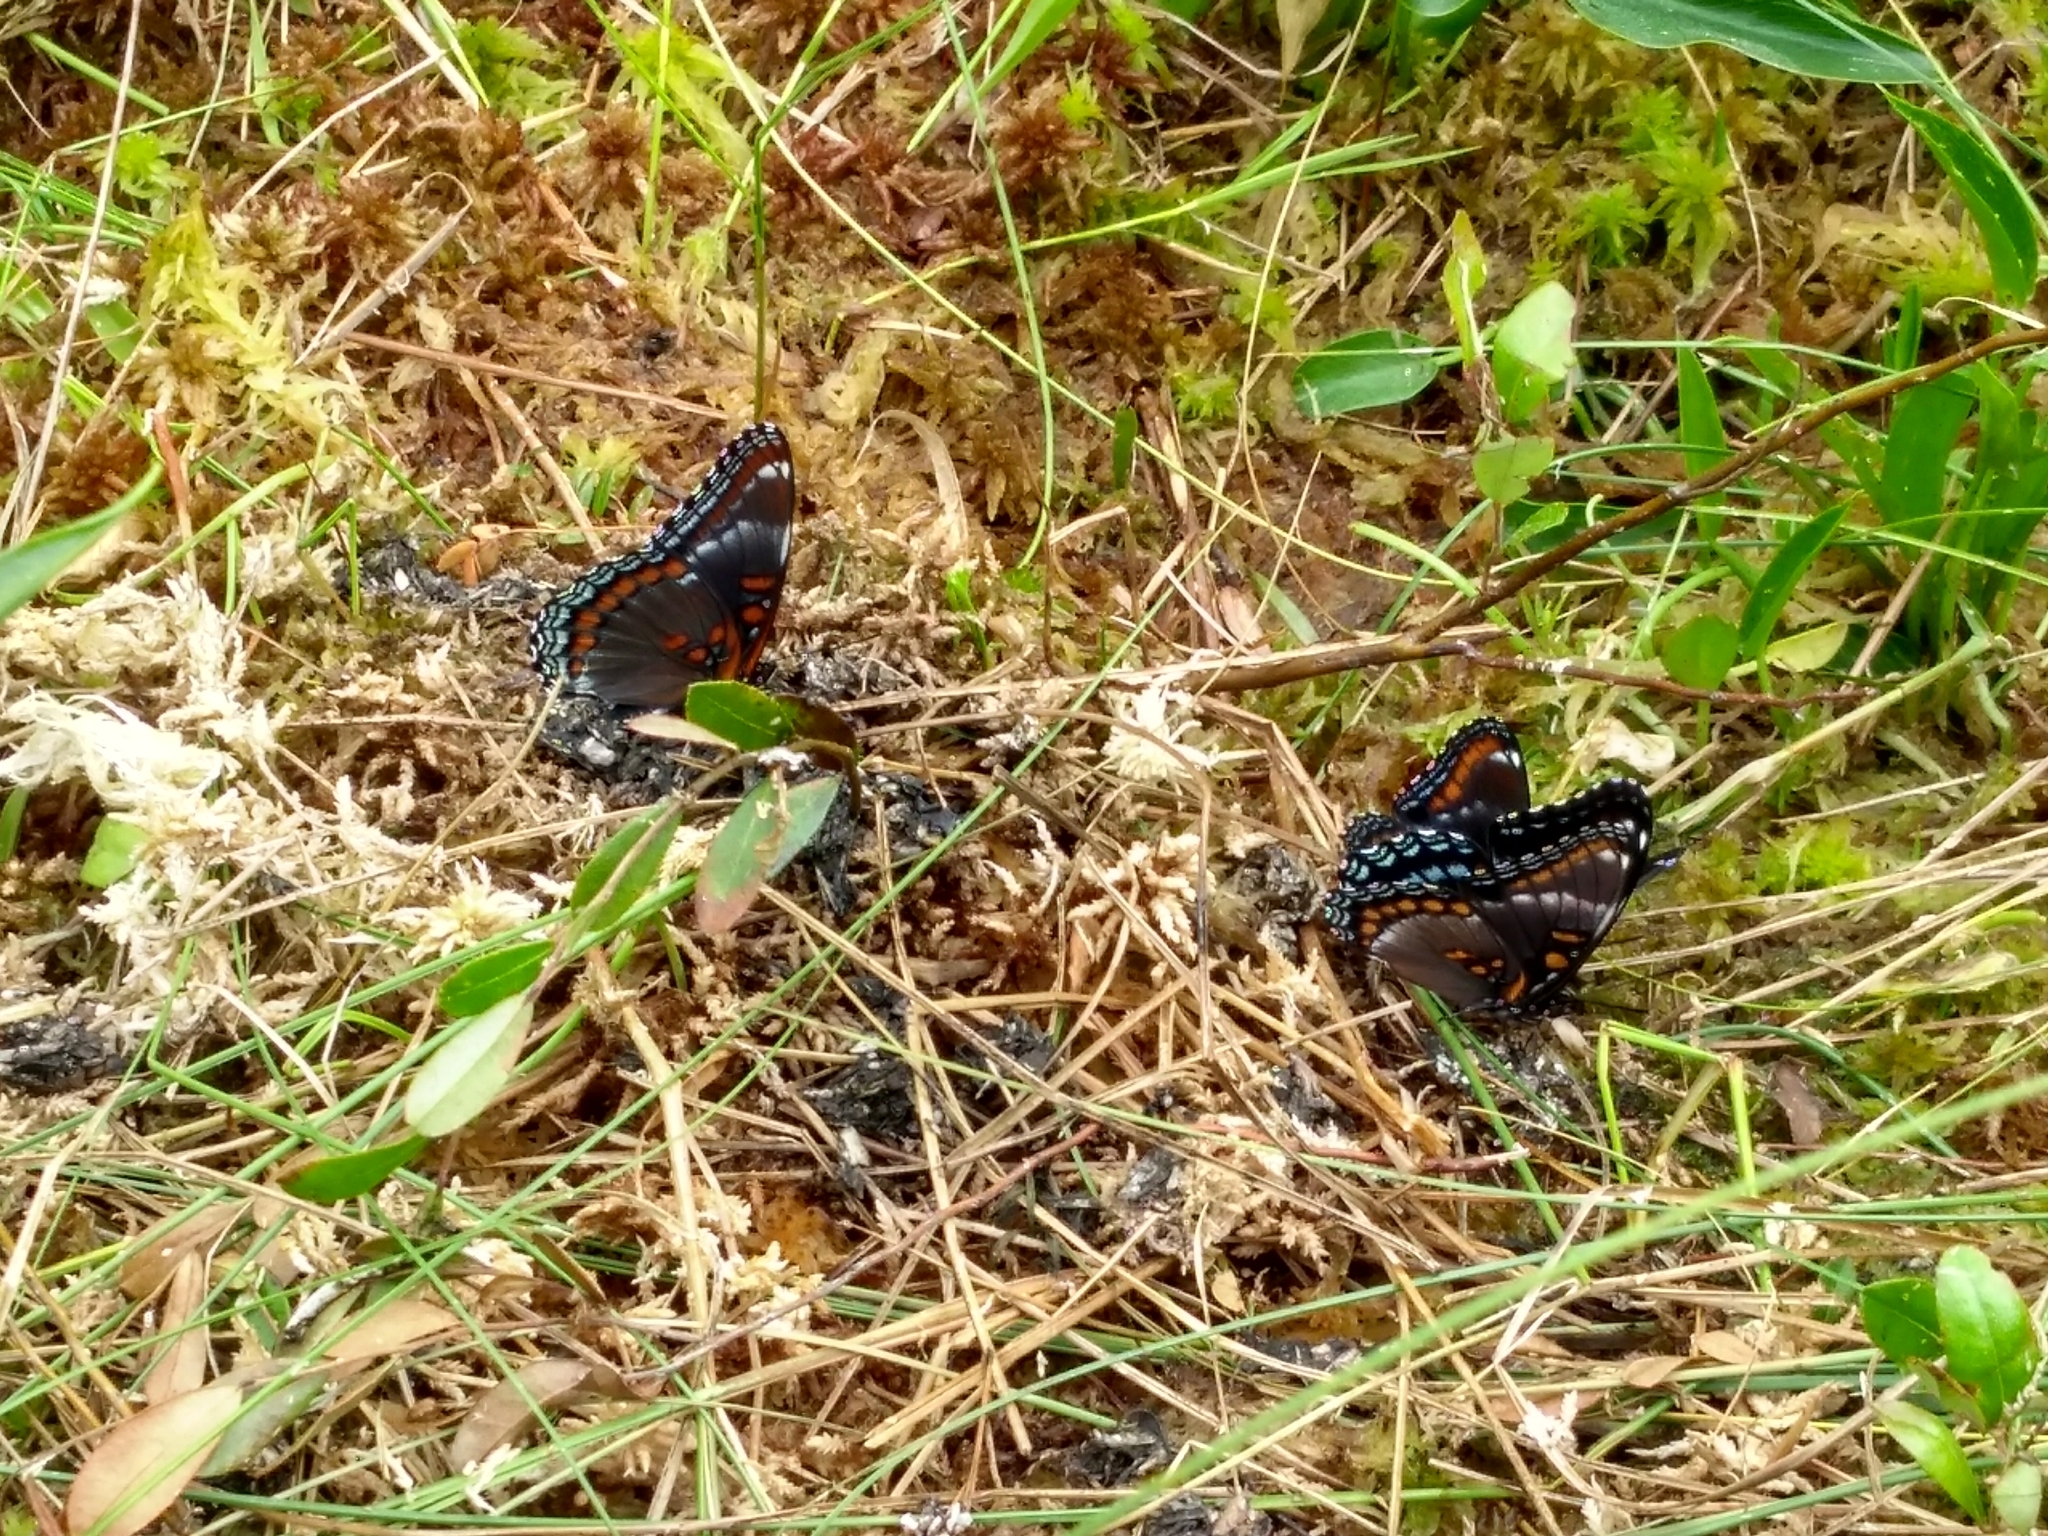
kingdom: Animalia
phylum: Arthropoda
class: Insecta
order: Lepidoptera
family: Nymphalidae
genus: Limenitis
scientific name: Limenitis
